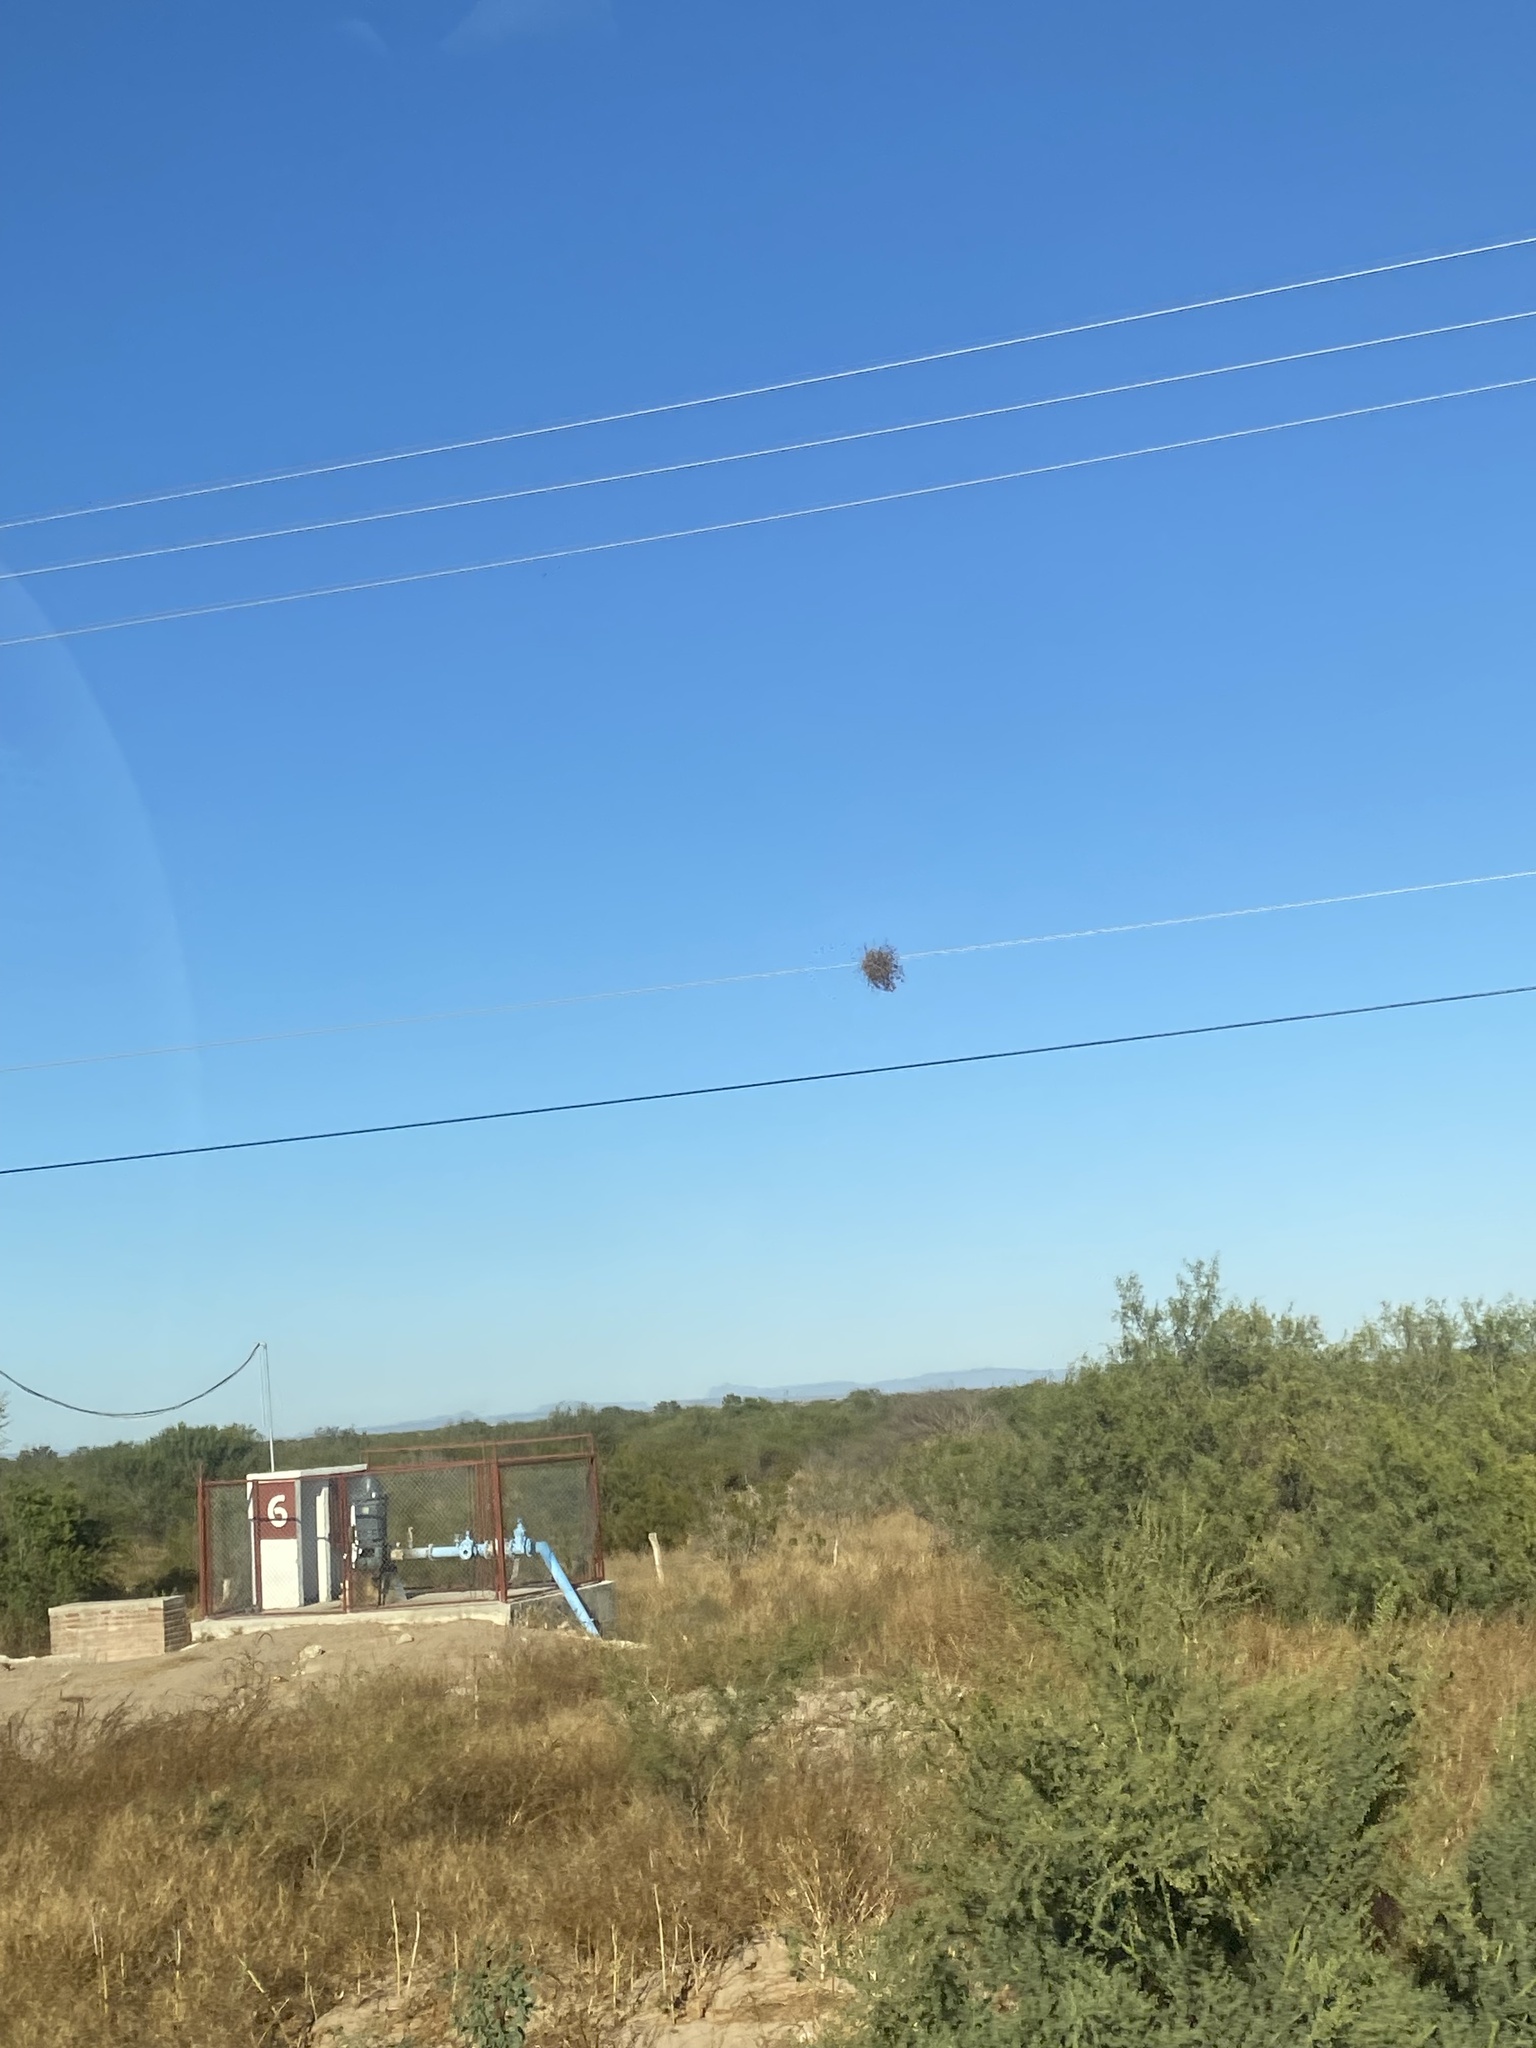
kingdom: Plantae
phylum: Tracheophyta
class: Liliopsida
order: Poales
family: Bromeliaceae
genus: Tillandsia
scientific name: Tillandsia recurvata
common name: Small ballmoss
